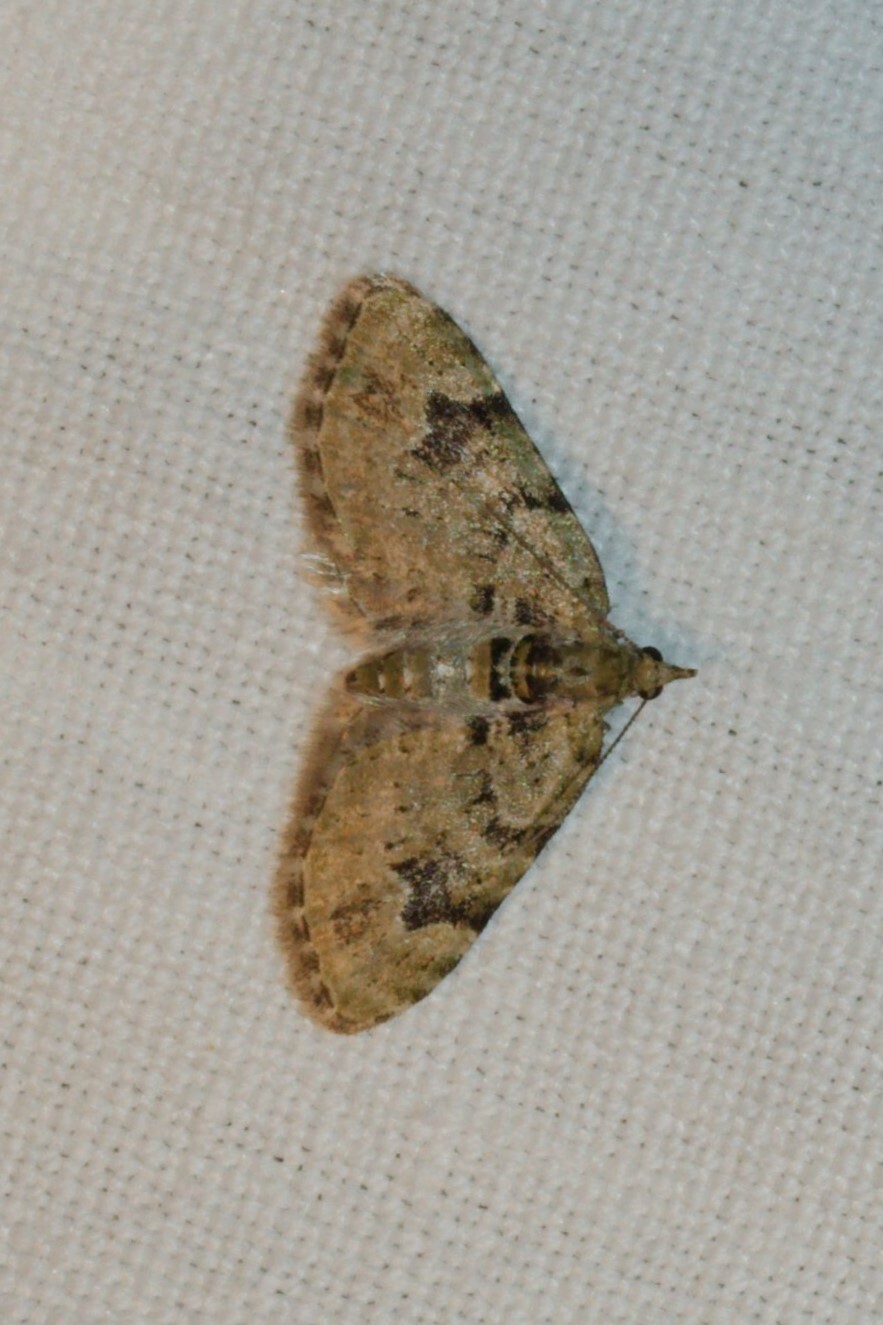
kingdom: Animalia
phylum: Arthropoda
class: Insecta
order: Lepidoptera
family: Geometridae
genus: Chloroclystis
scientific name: Chloroclystis v-ata
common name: V-pug
